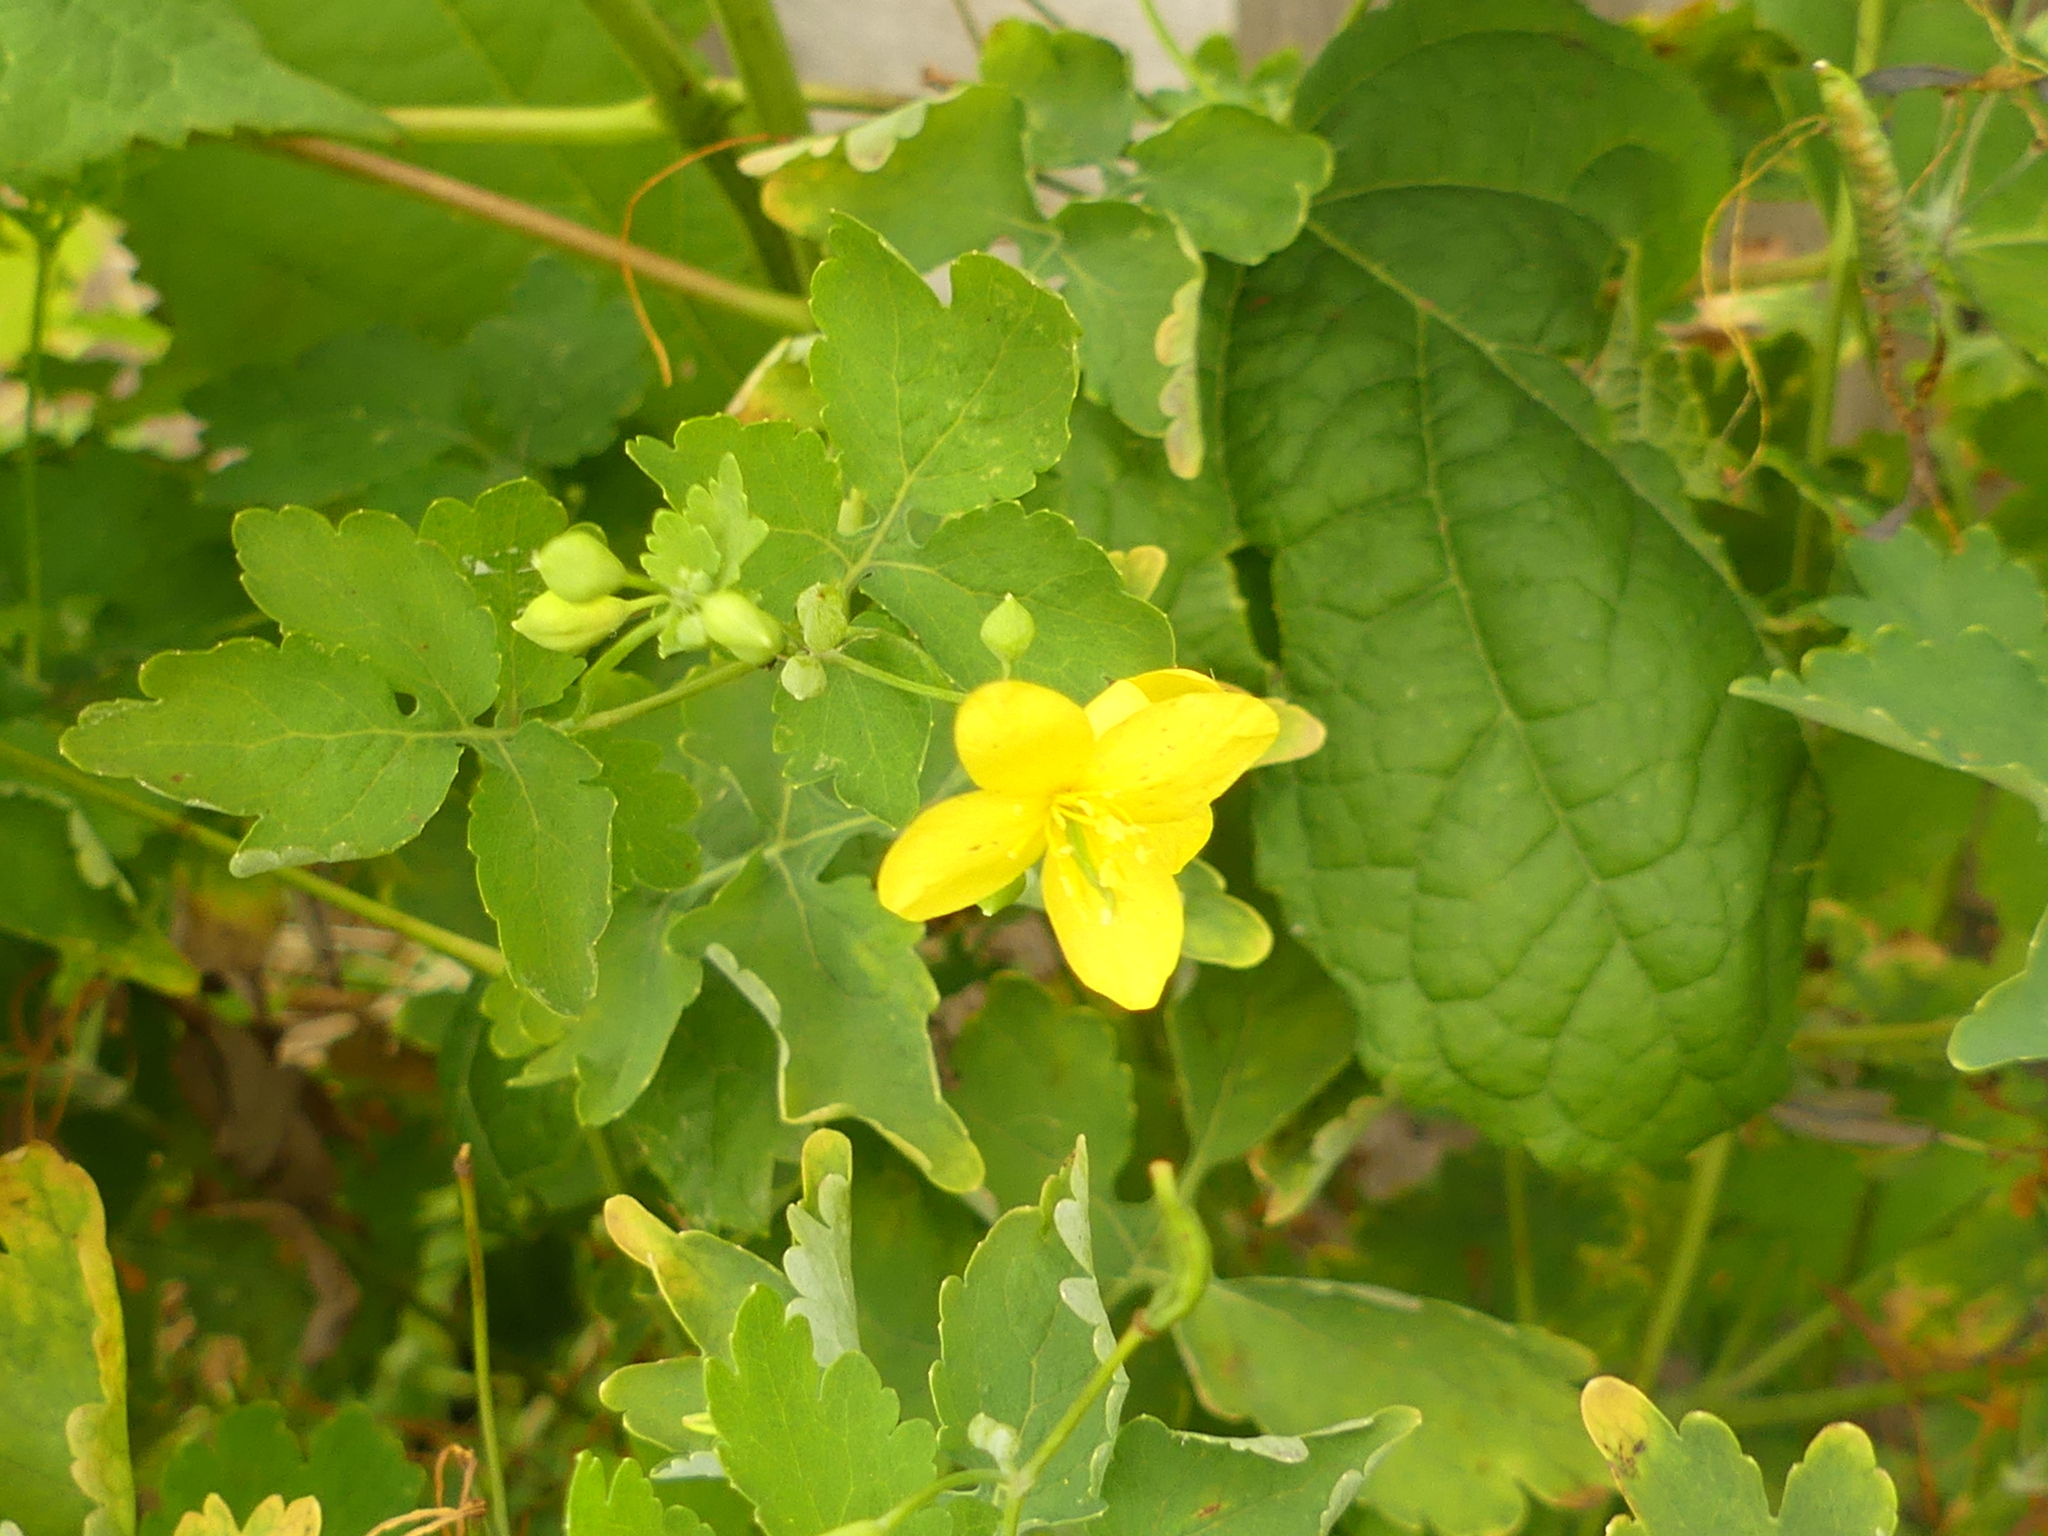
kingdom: Plantae
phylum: Tracheophyta
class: Magnoliopsida
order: Ranunculales
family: Papaveraceae
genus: Chelidonium
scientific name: Chelidonium majus
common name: Greater celandine
